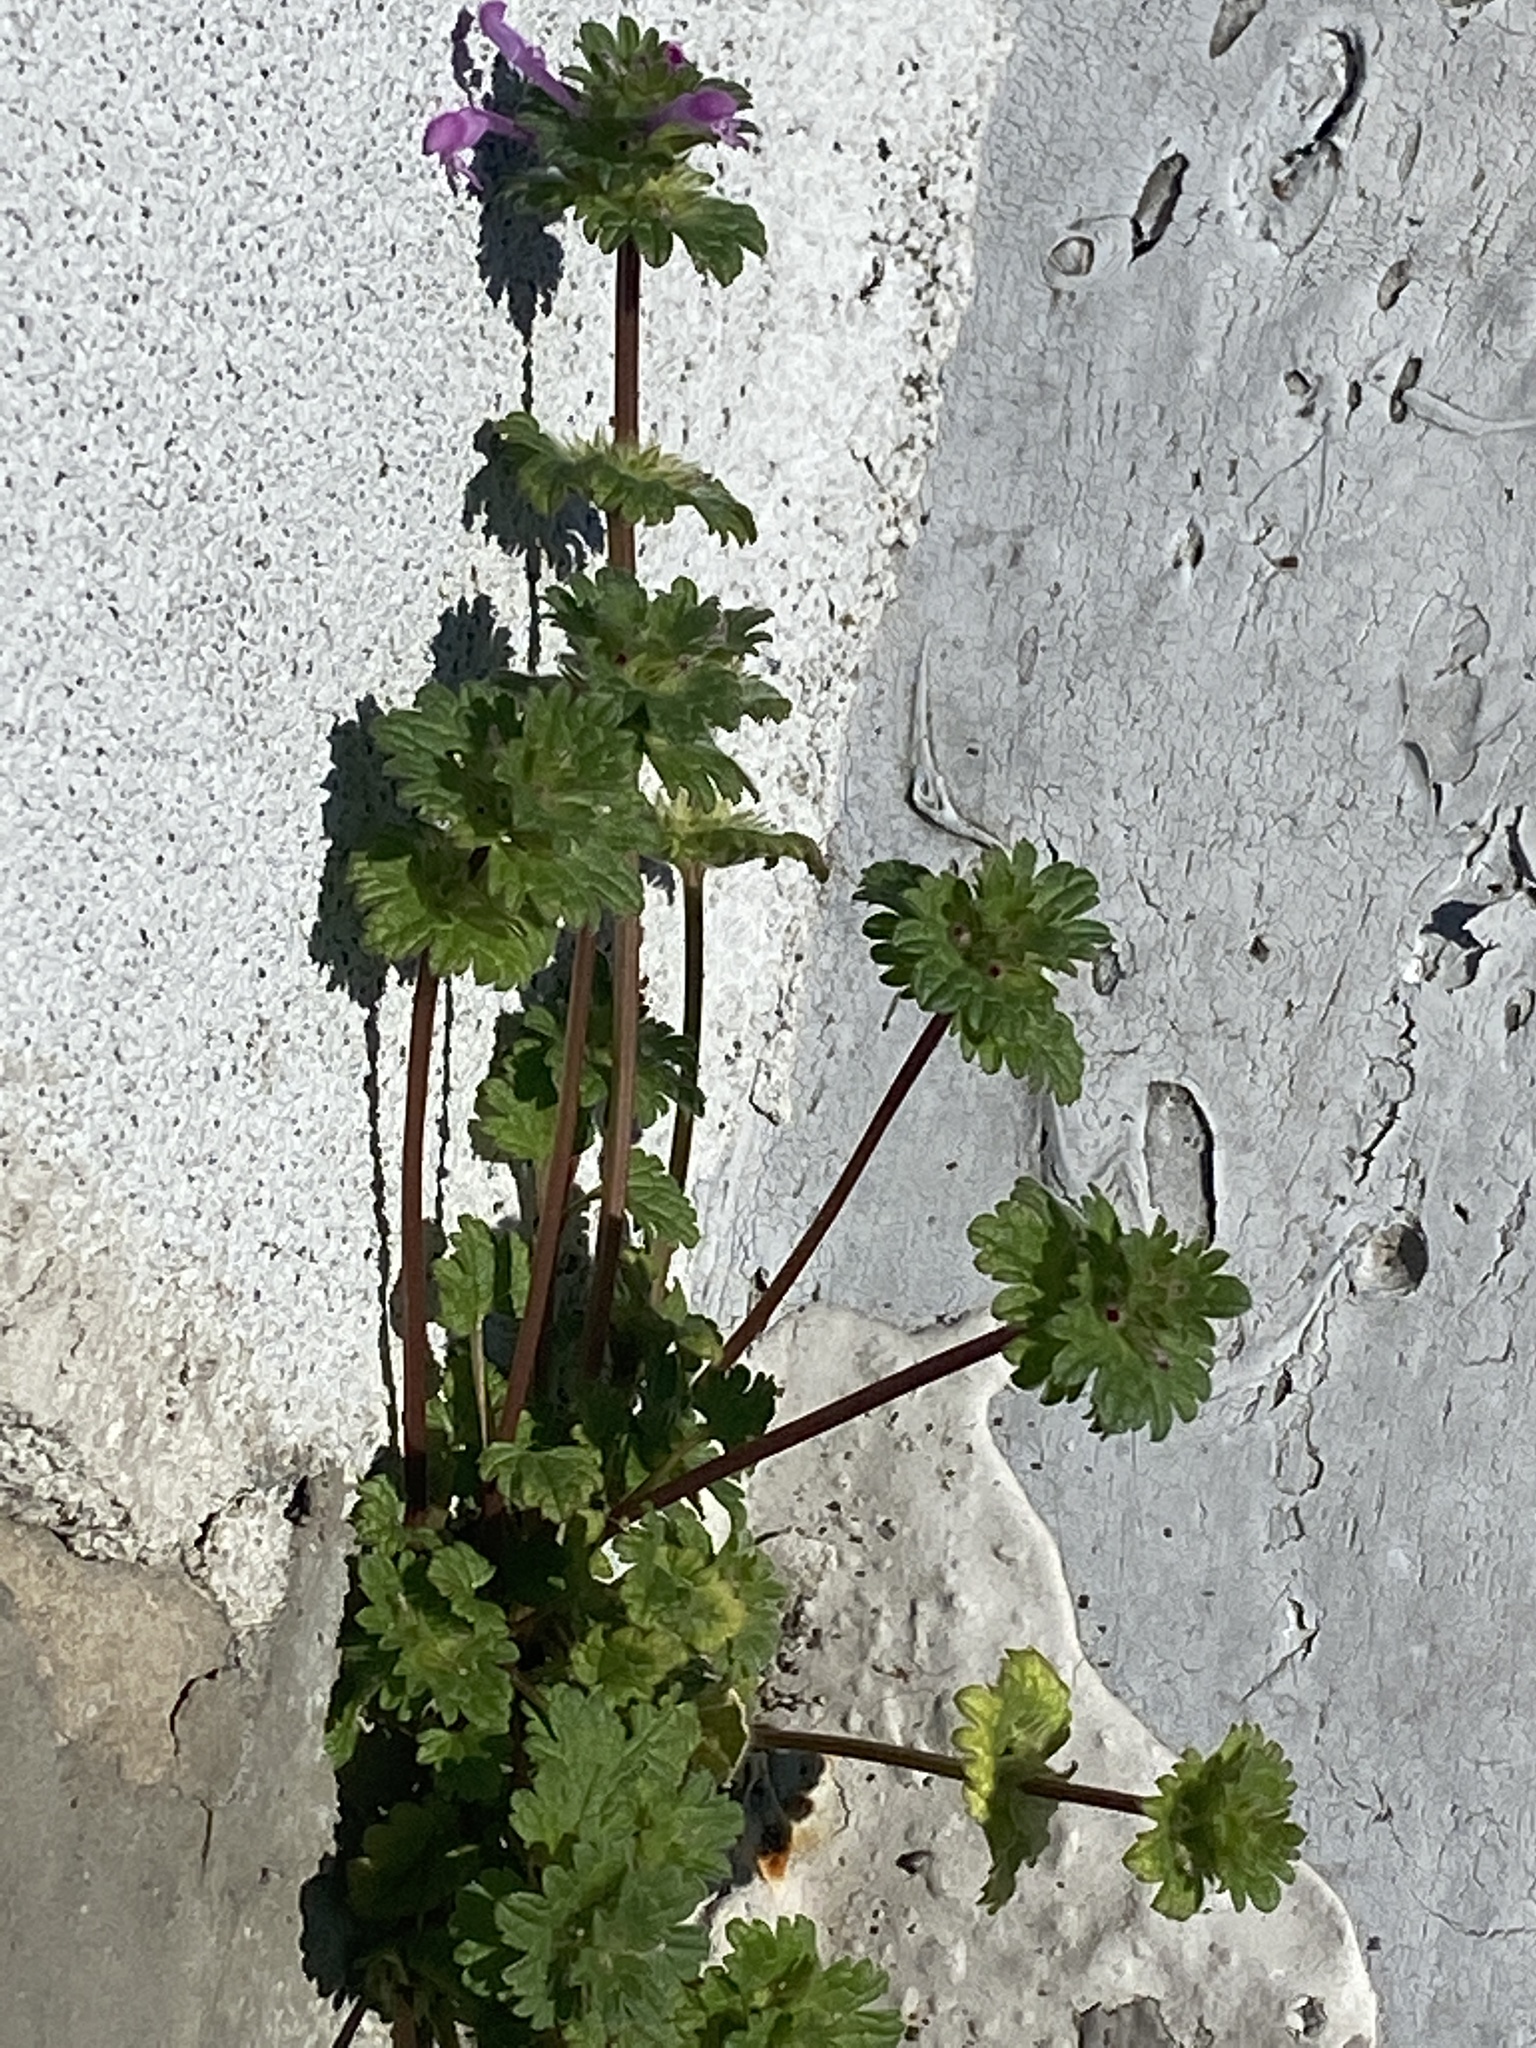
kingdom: Plantae
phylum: Tracheophyta
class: Magnoliopsida
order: Lamiales
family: Lamiaceae
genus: Lamium
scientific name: Lamium amplexicaule
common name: Henbit dead-nettle
